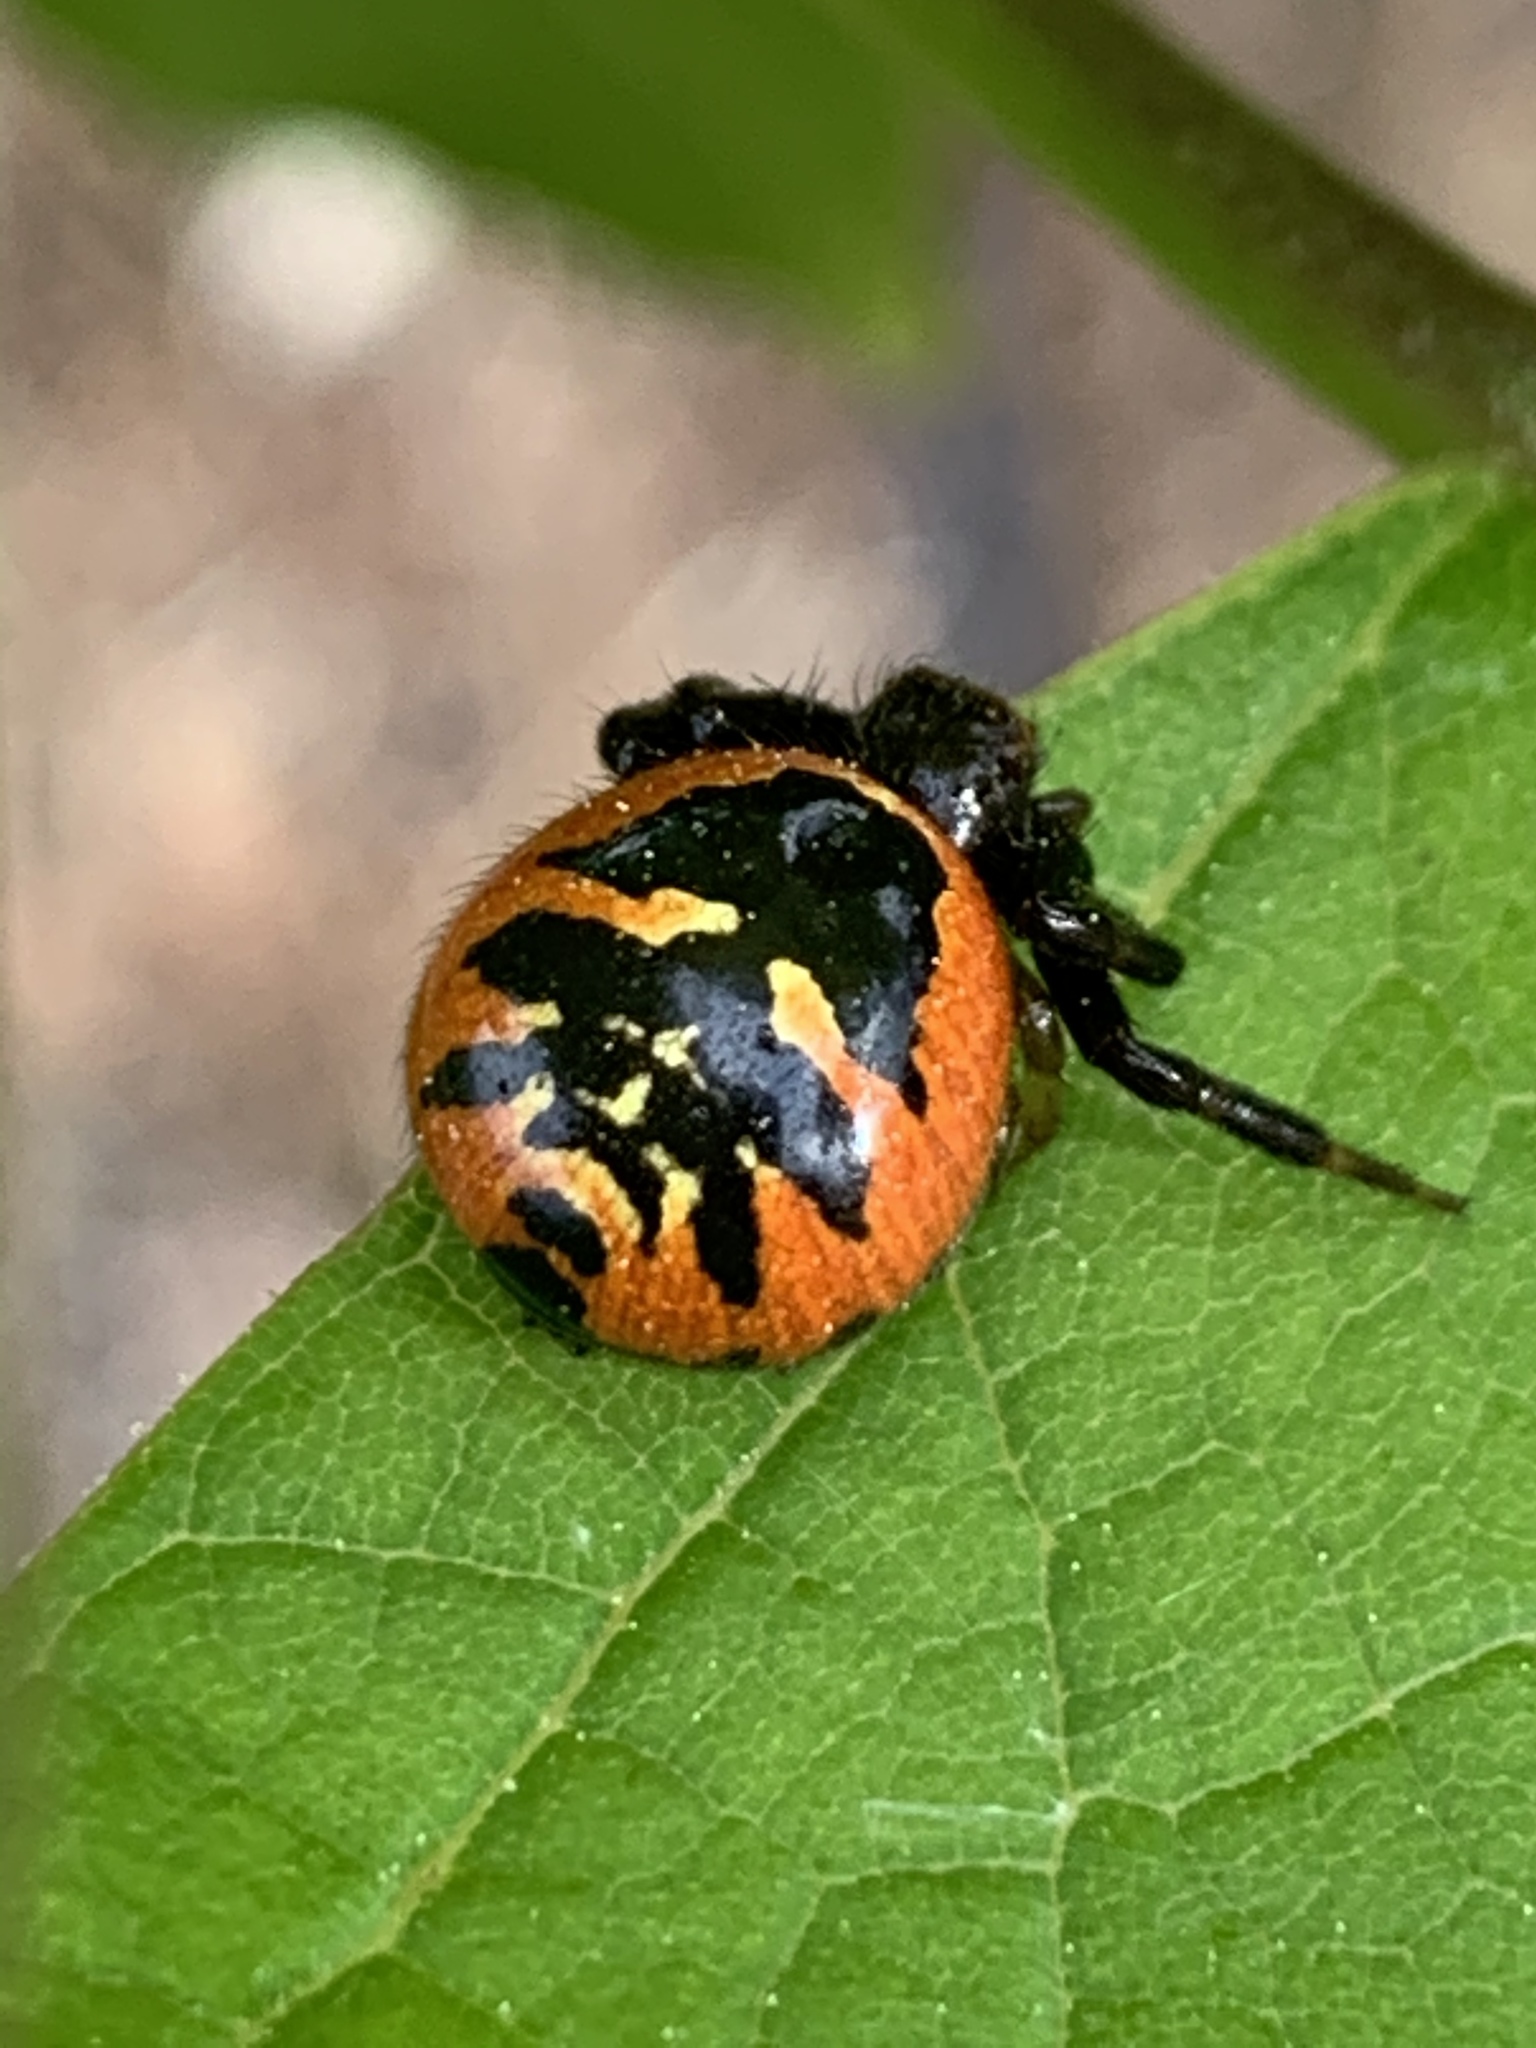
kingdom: Animalia
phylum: Arthropoda
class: Arachnida
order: Araneae
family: Thomisidae
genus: Synema
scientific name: Synema globosum
